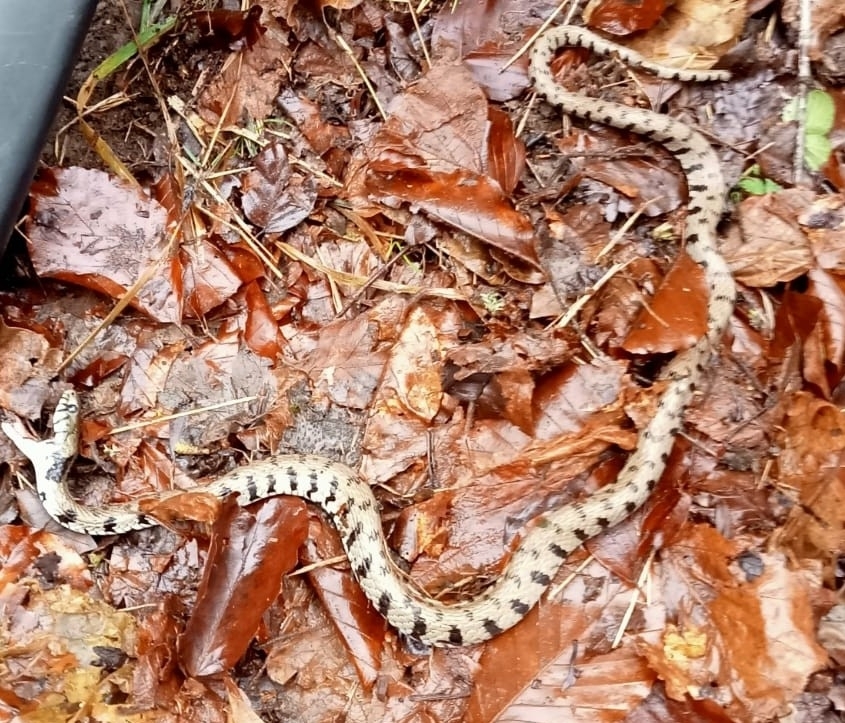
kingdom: Animalia
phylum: Chordata
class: Squamata
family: Colubridae
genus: Natrix
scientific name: Natrix helvetica
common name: Banded grass snake
